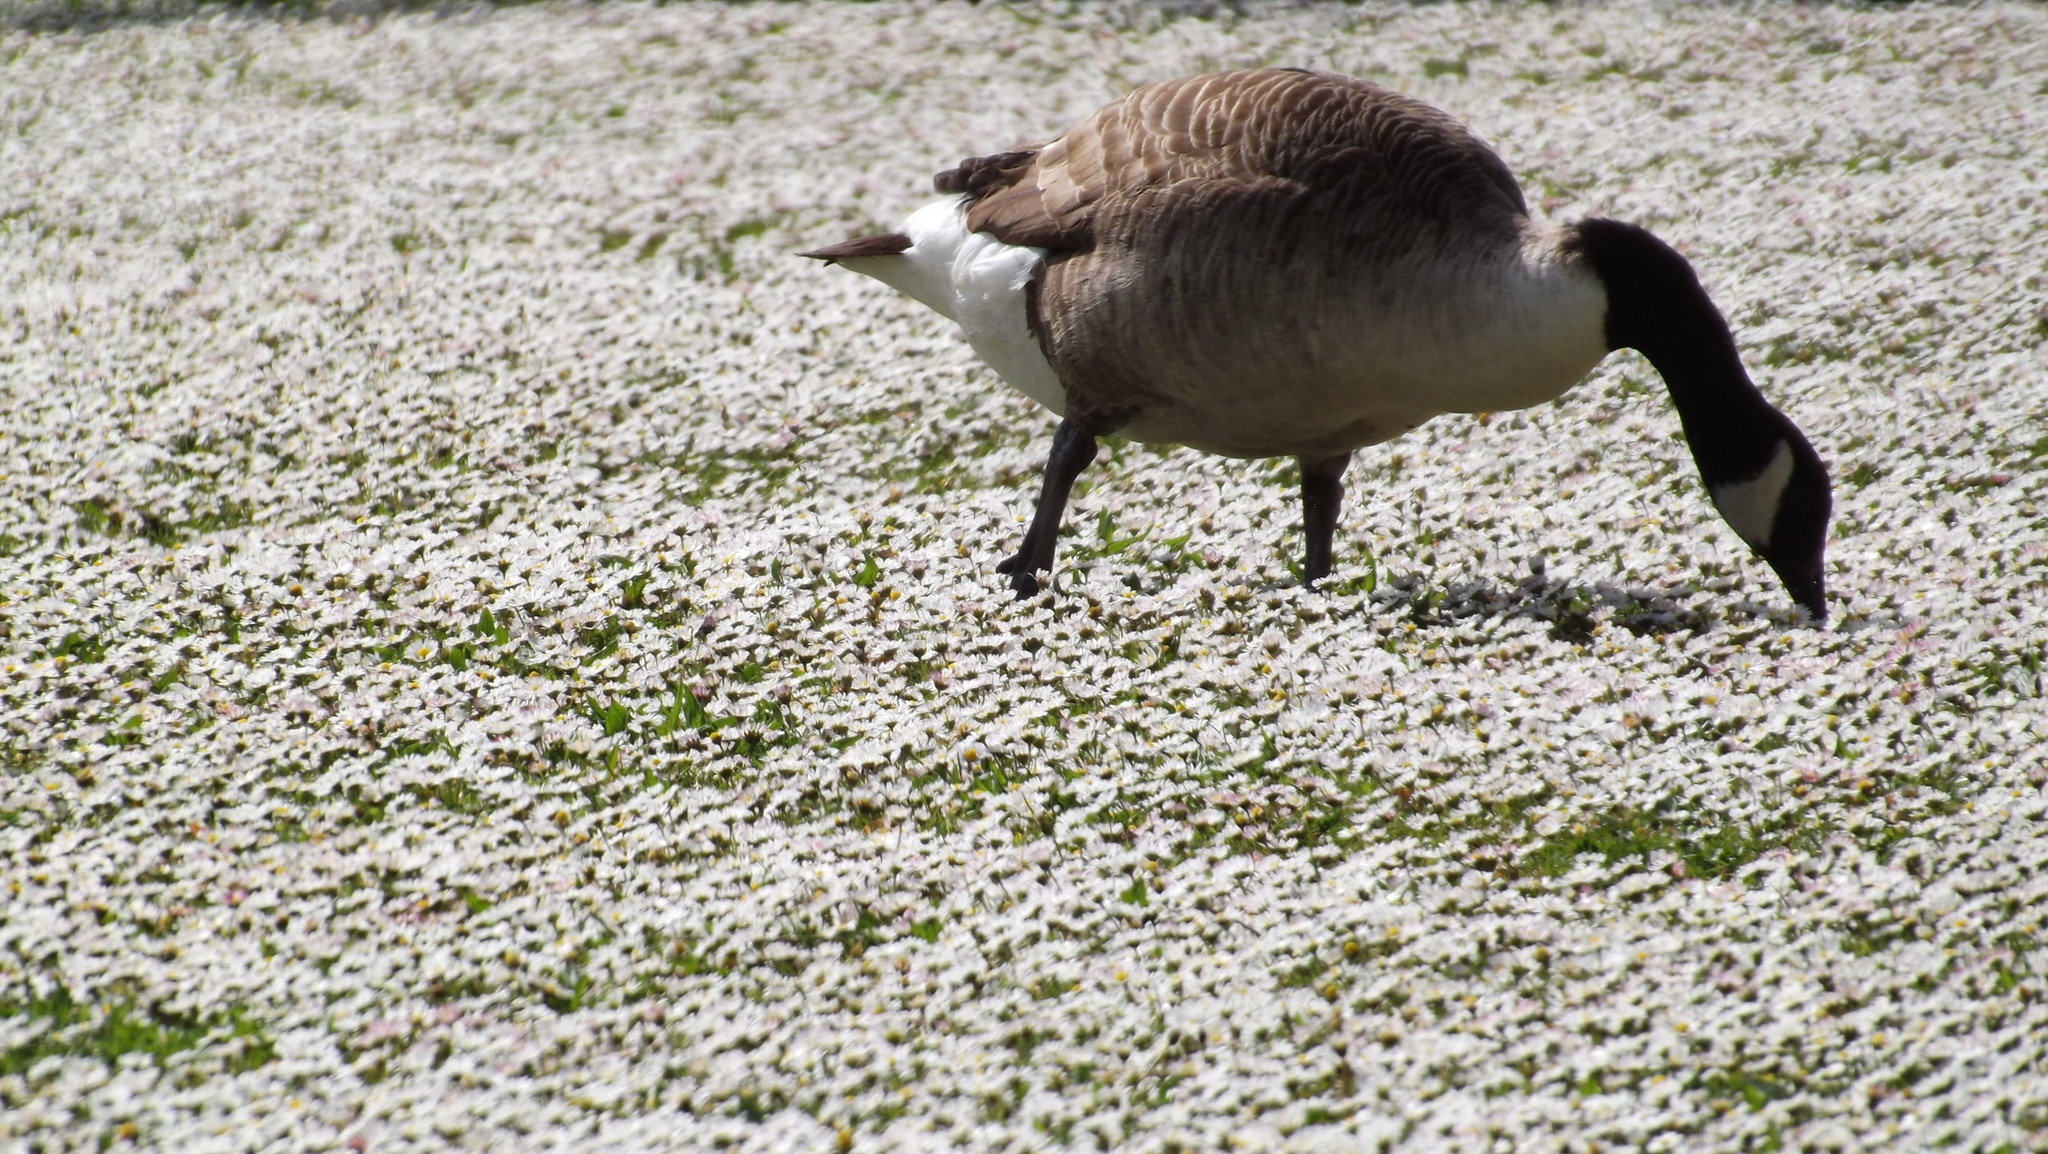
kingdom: Animalia
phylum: Chordata
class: Aves
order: Anseriformes
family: Anatidae
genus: Branta
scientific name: Branta canadensis
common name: Canada goose
